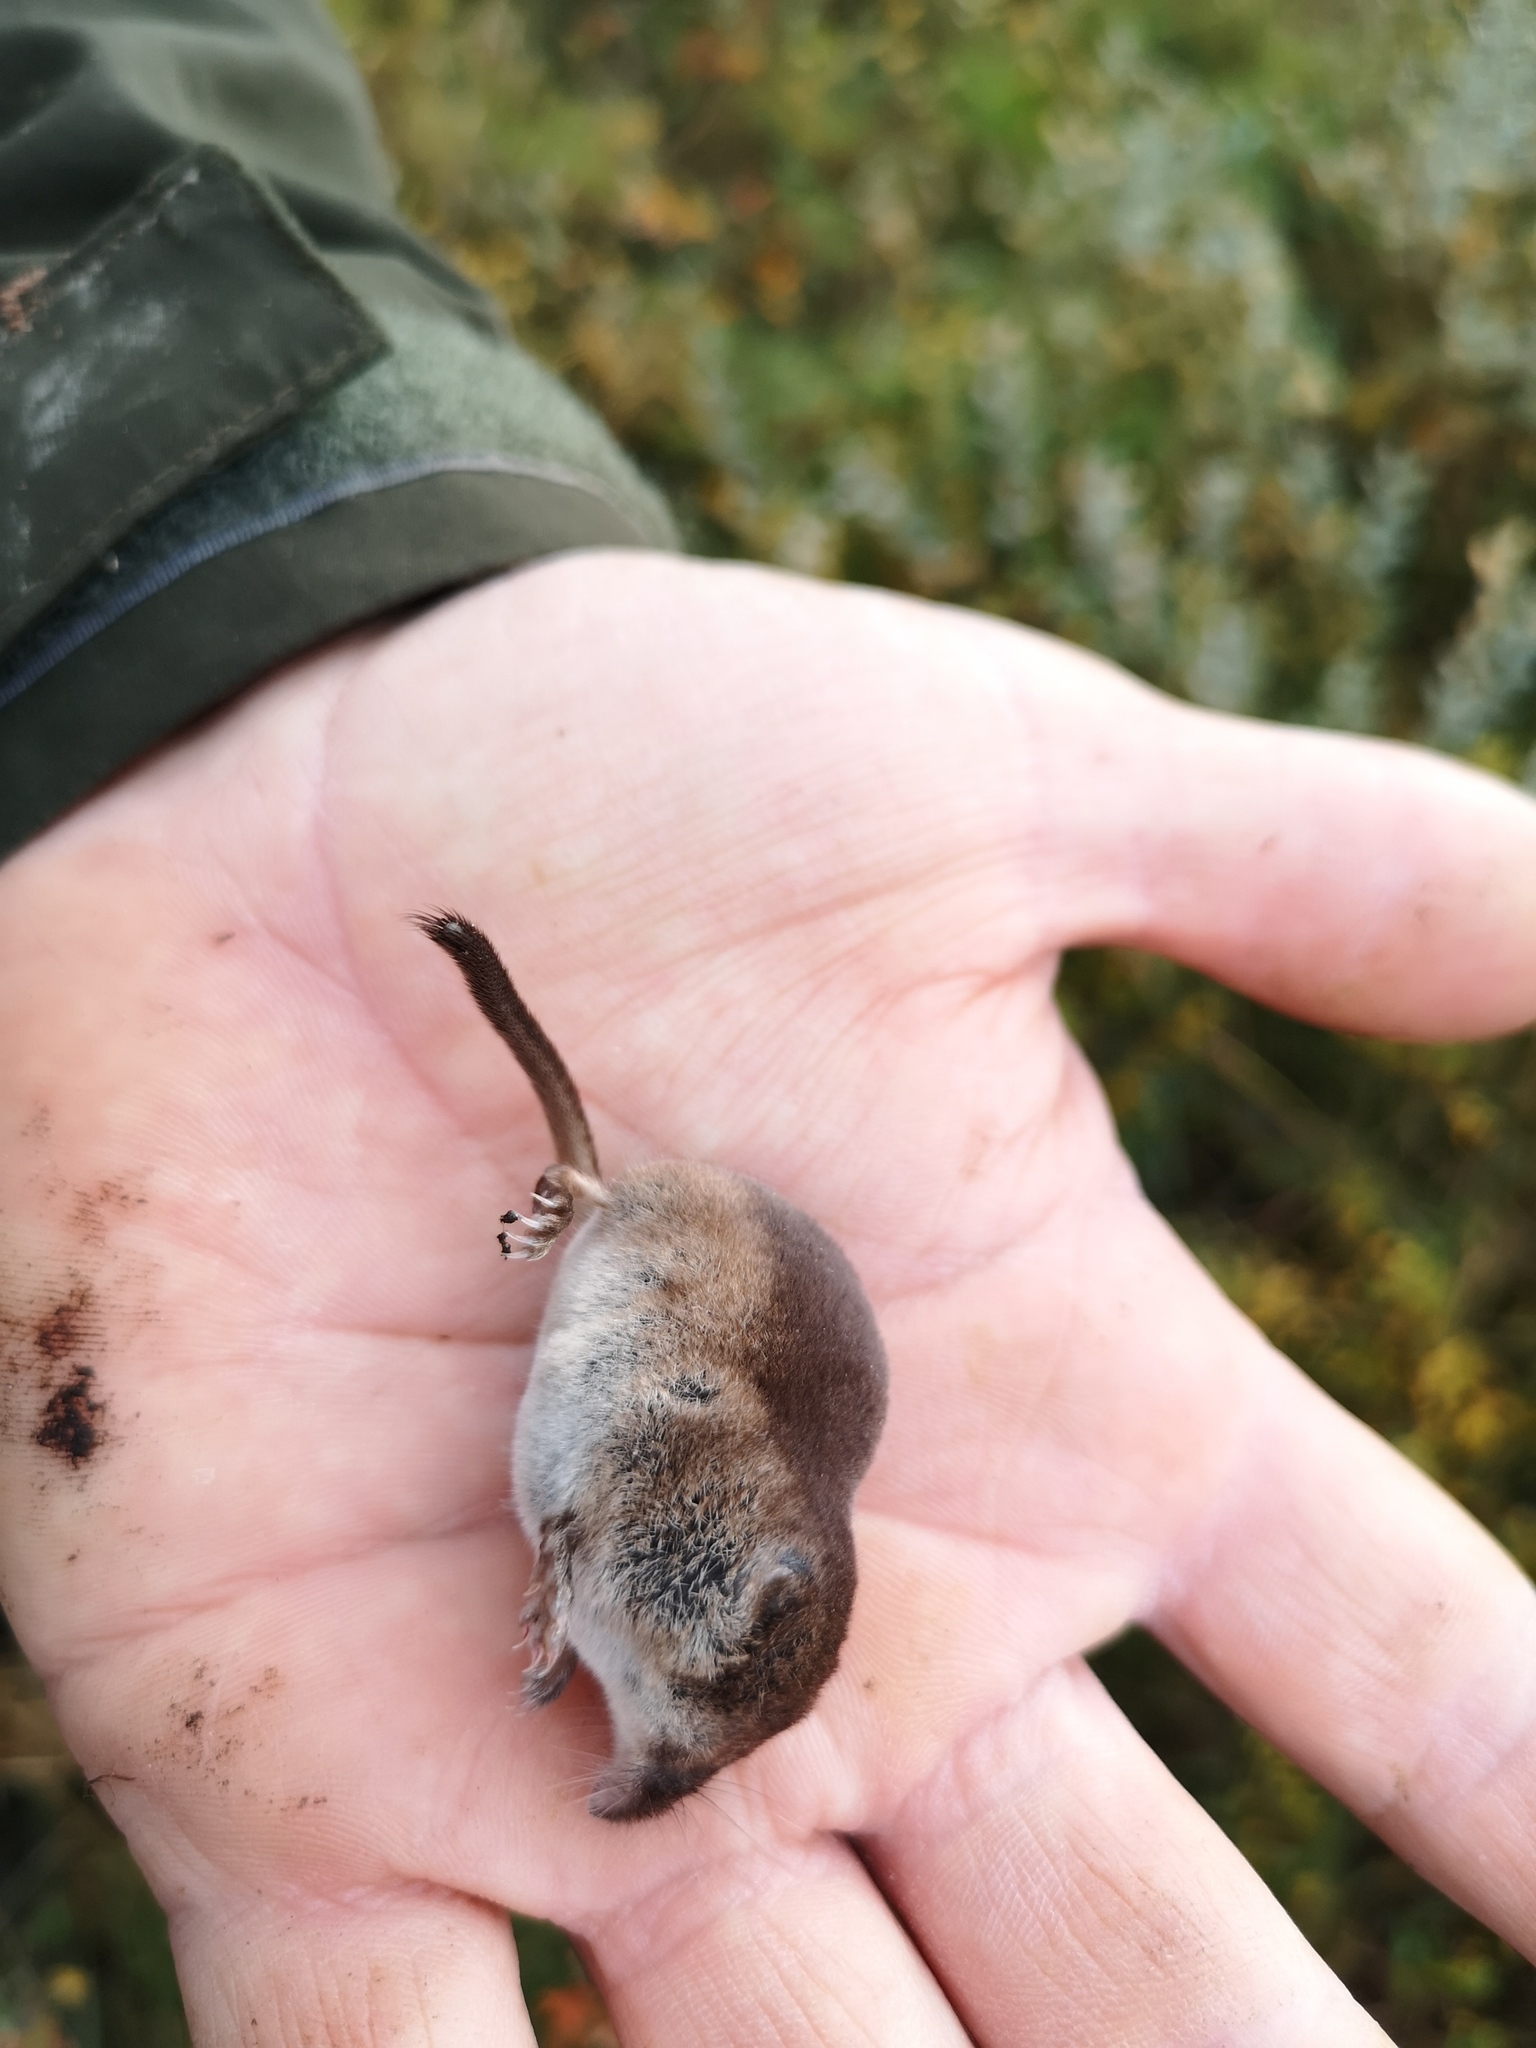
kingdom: Animalia
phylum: Chordata
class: Mammalia
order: Soricomorpha
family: Soricidae
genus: Sorex
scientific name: Sorex minutus
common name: Eurasian pygmy shrew
